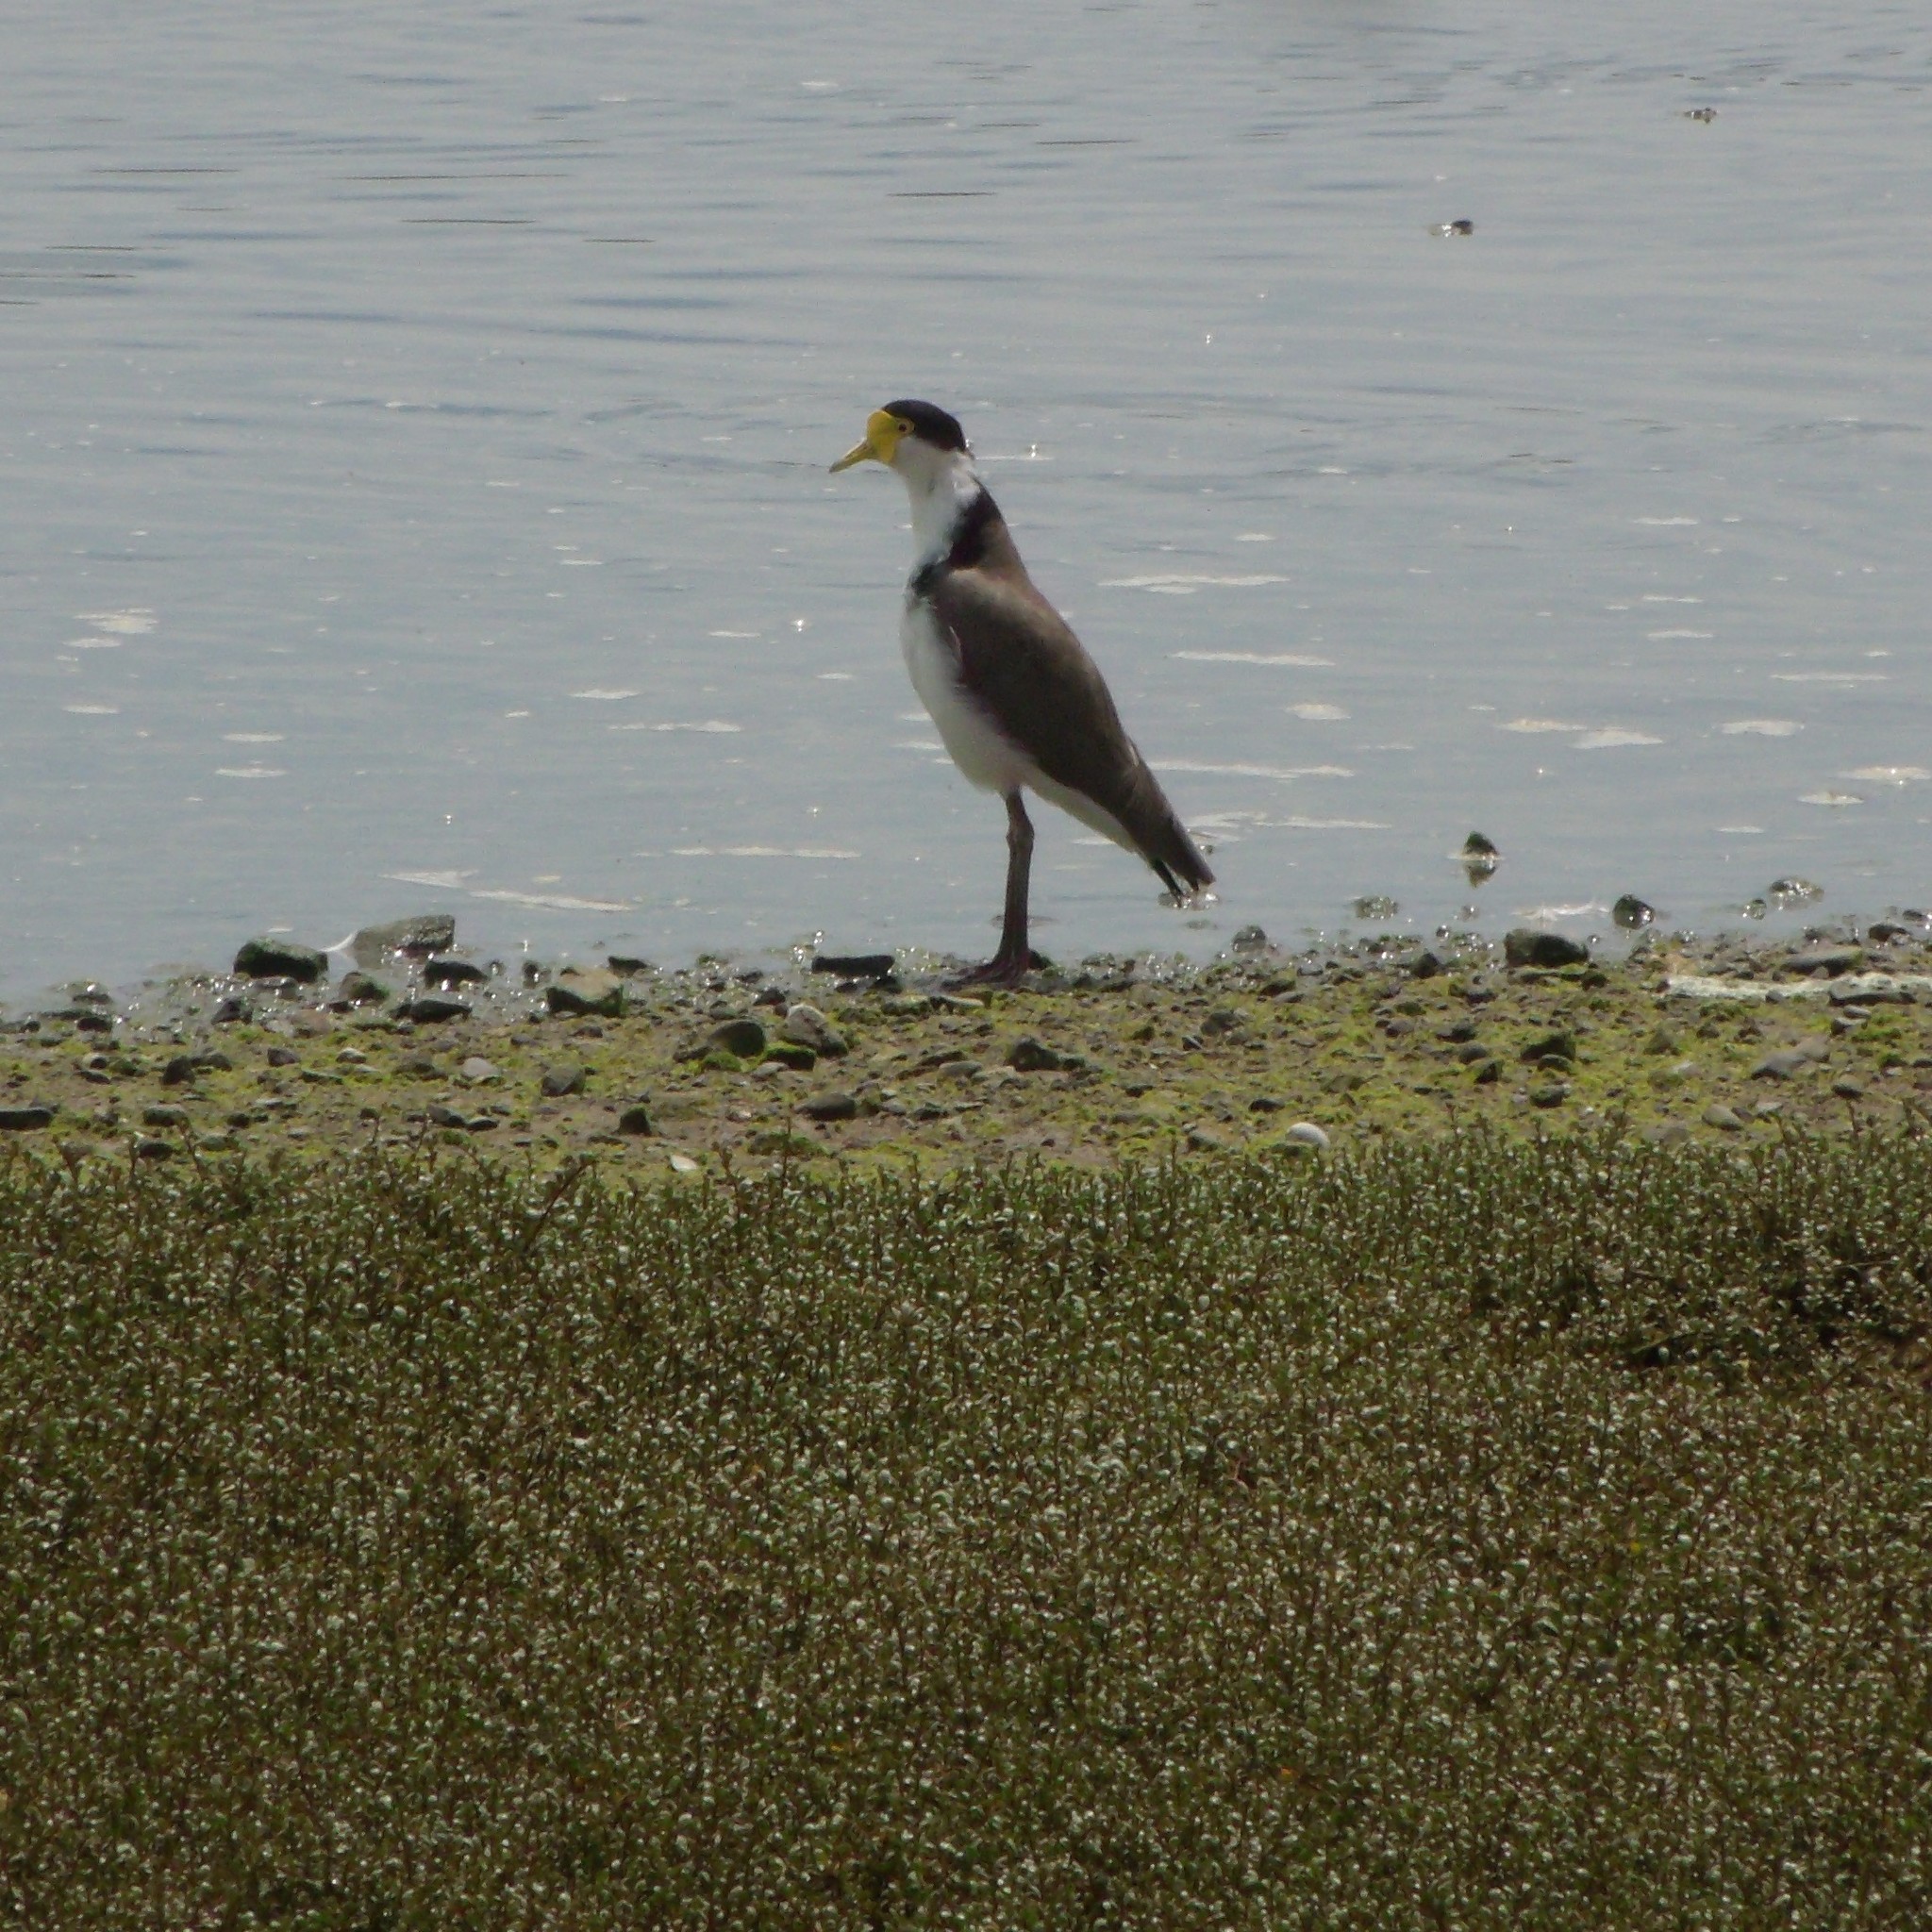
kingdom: Animalia
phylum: Chordata
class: Aves
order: Charadriiformes
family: Charadriidae
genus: Vanellus
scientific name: Vanellus miles
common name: Masked lapwing
